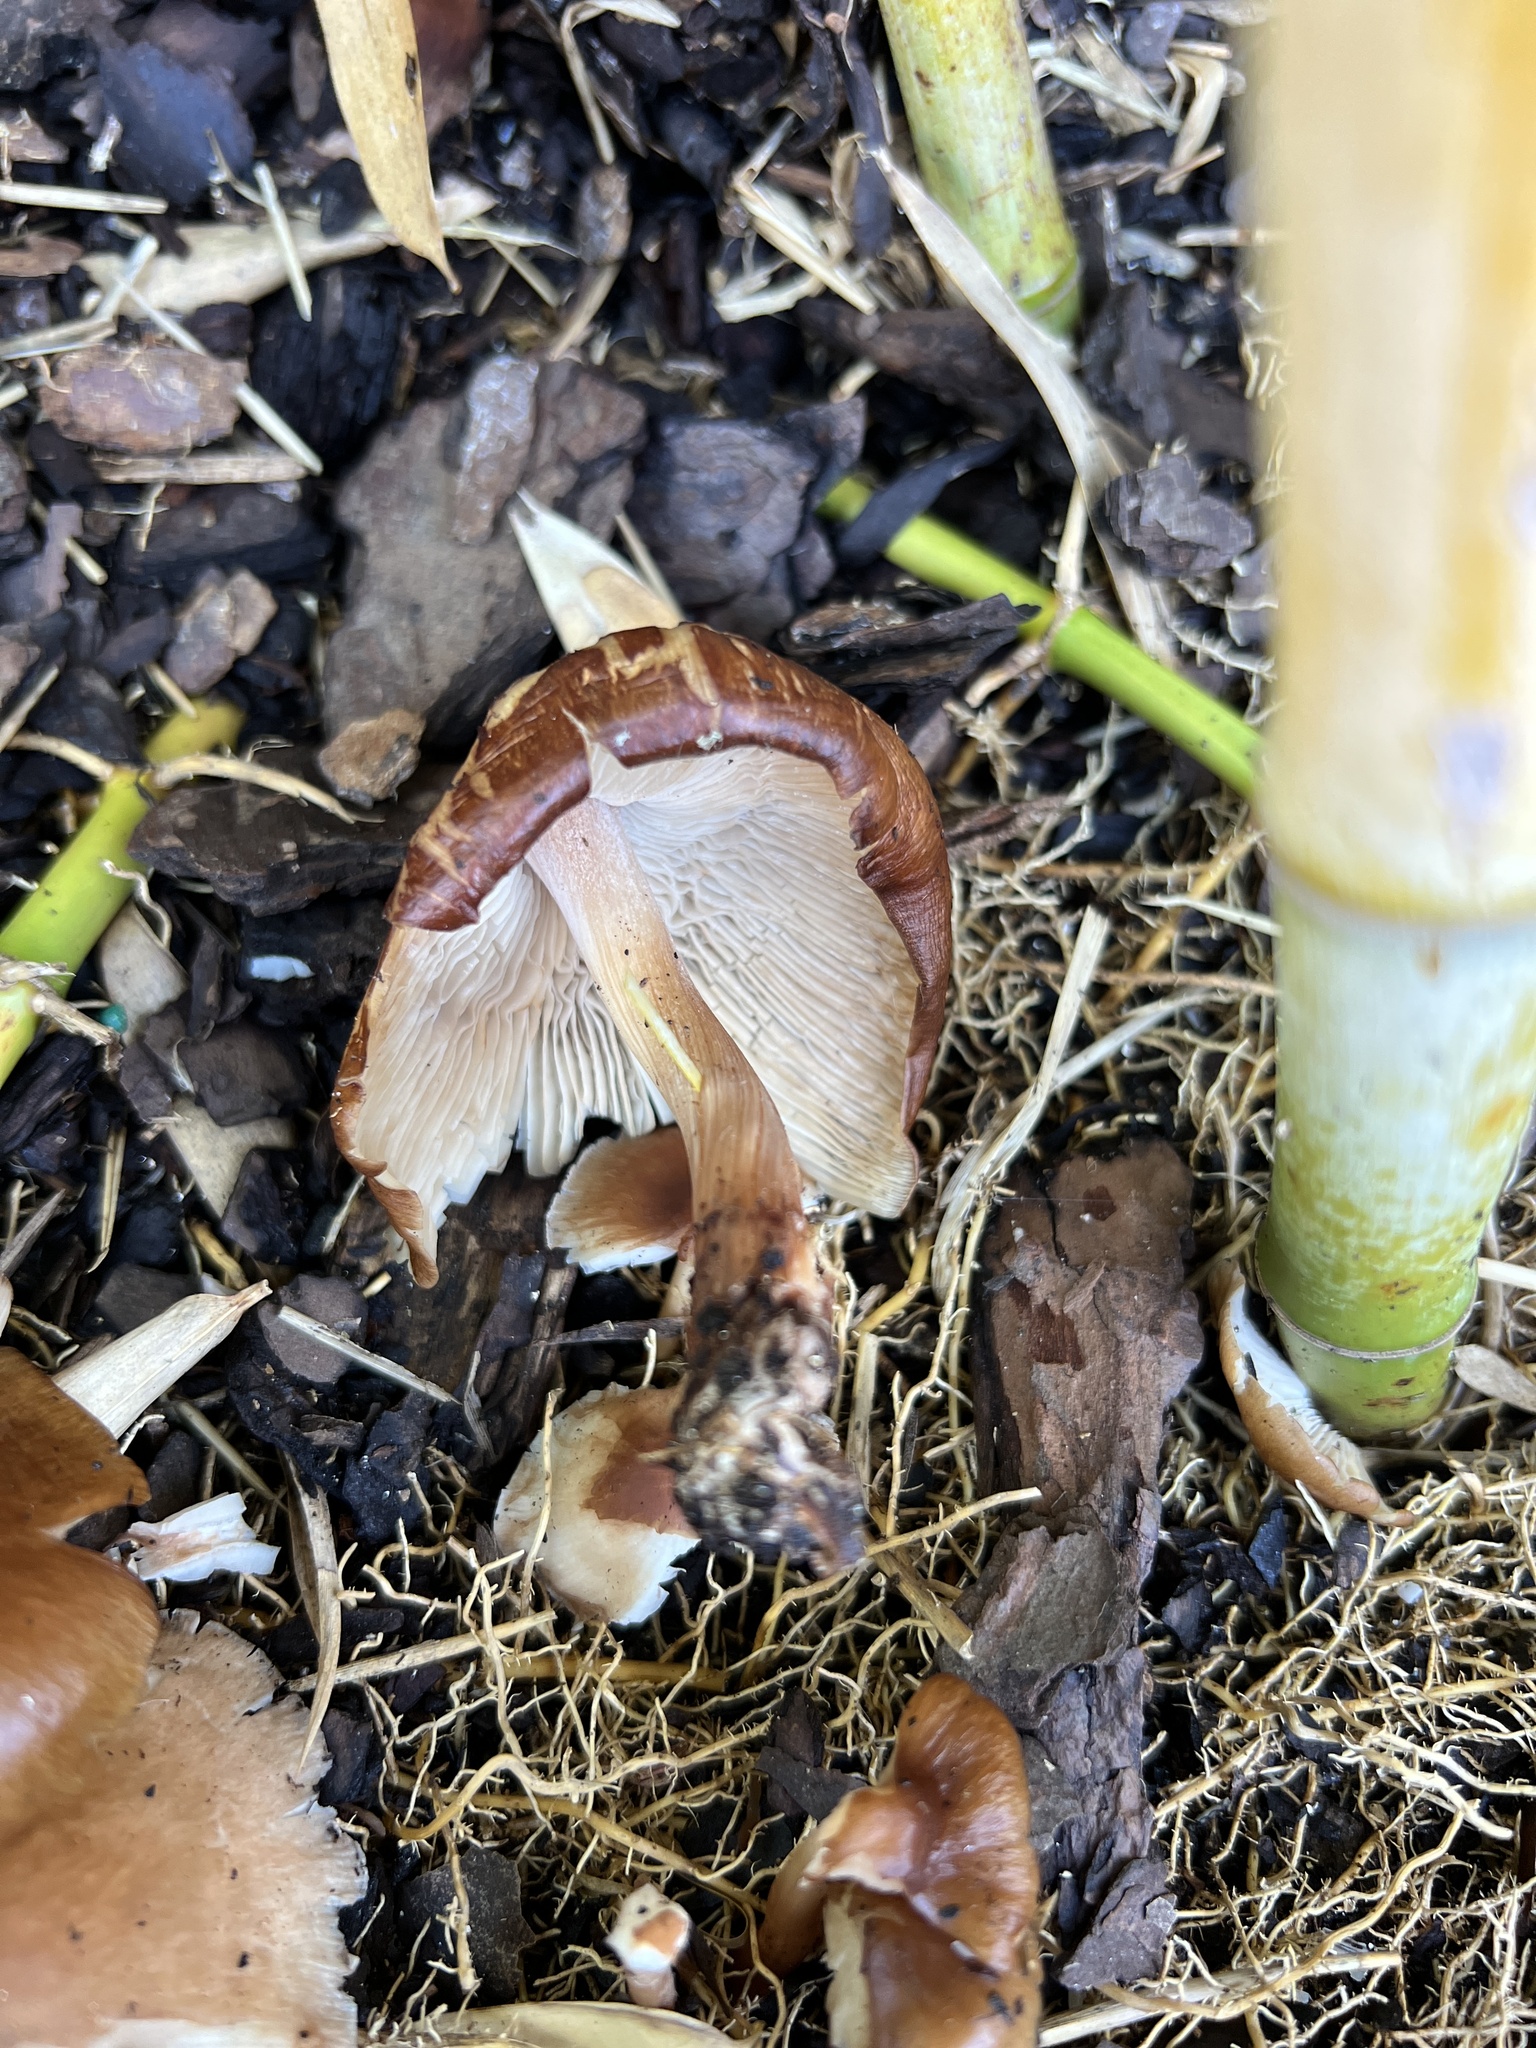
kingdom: Fungi
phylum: Basidiomycota
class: Agaricomycetes
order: Agaricales
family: Omphalotaceae
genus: Collybiopsis
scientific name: Collybiopsis luxurians
